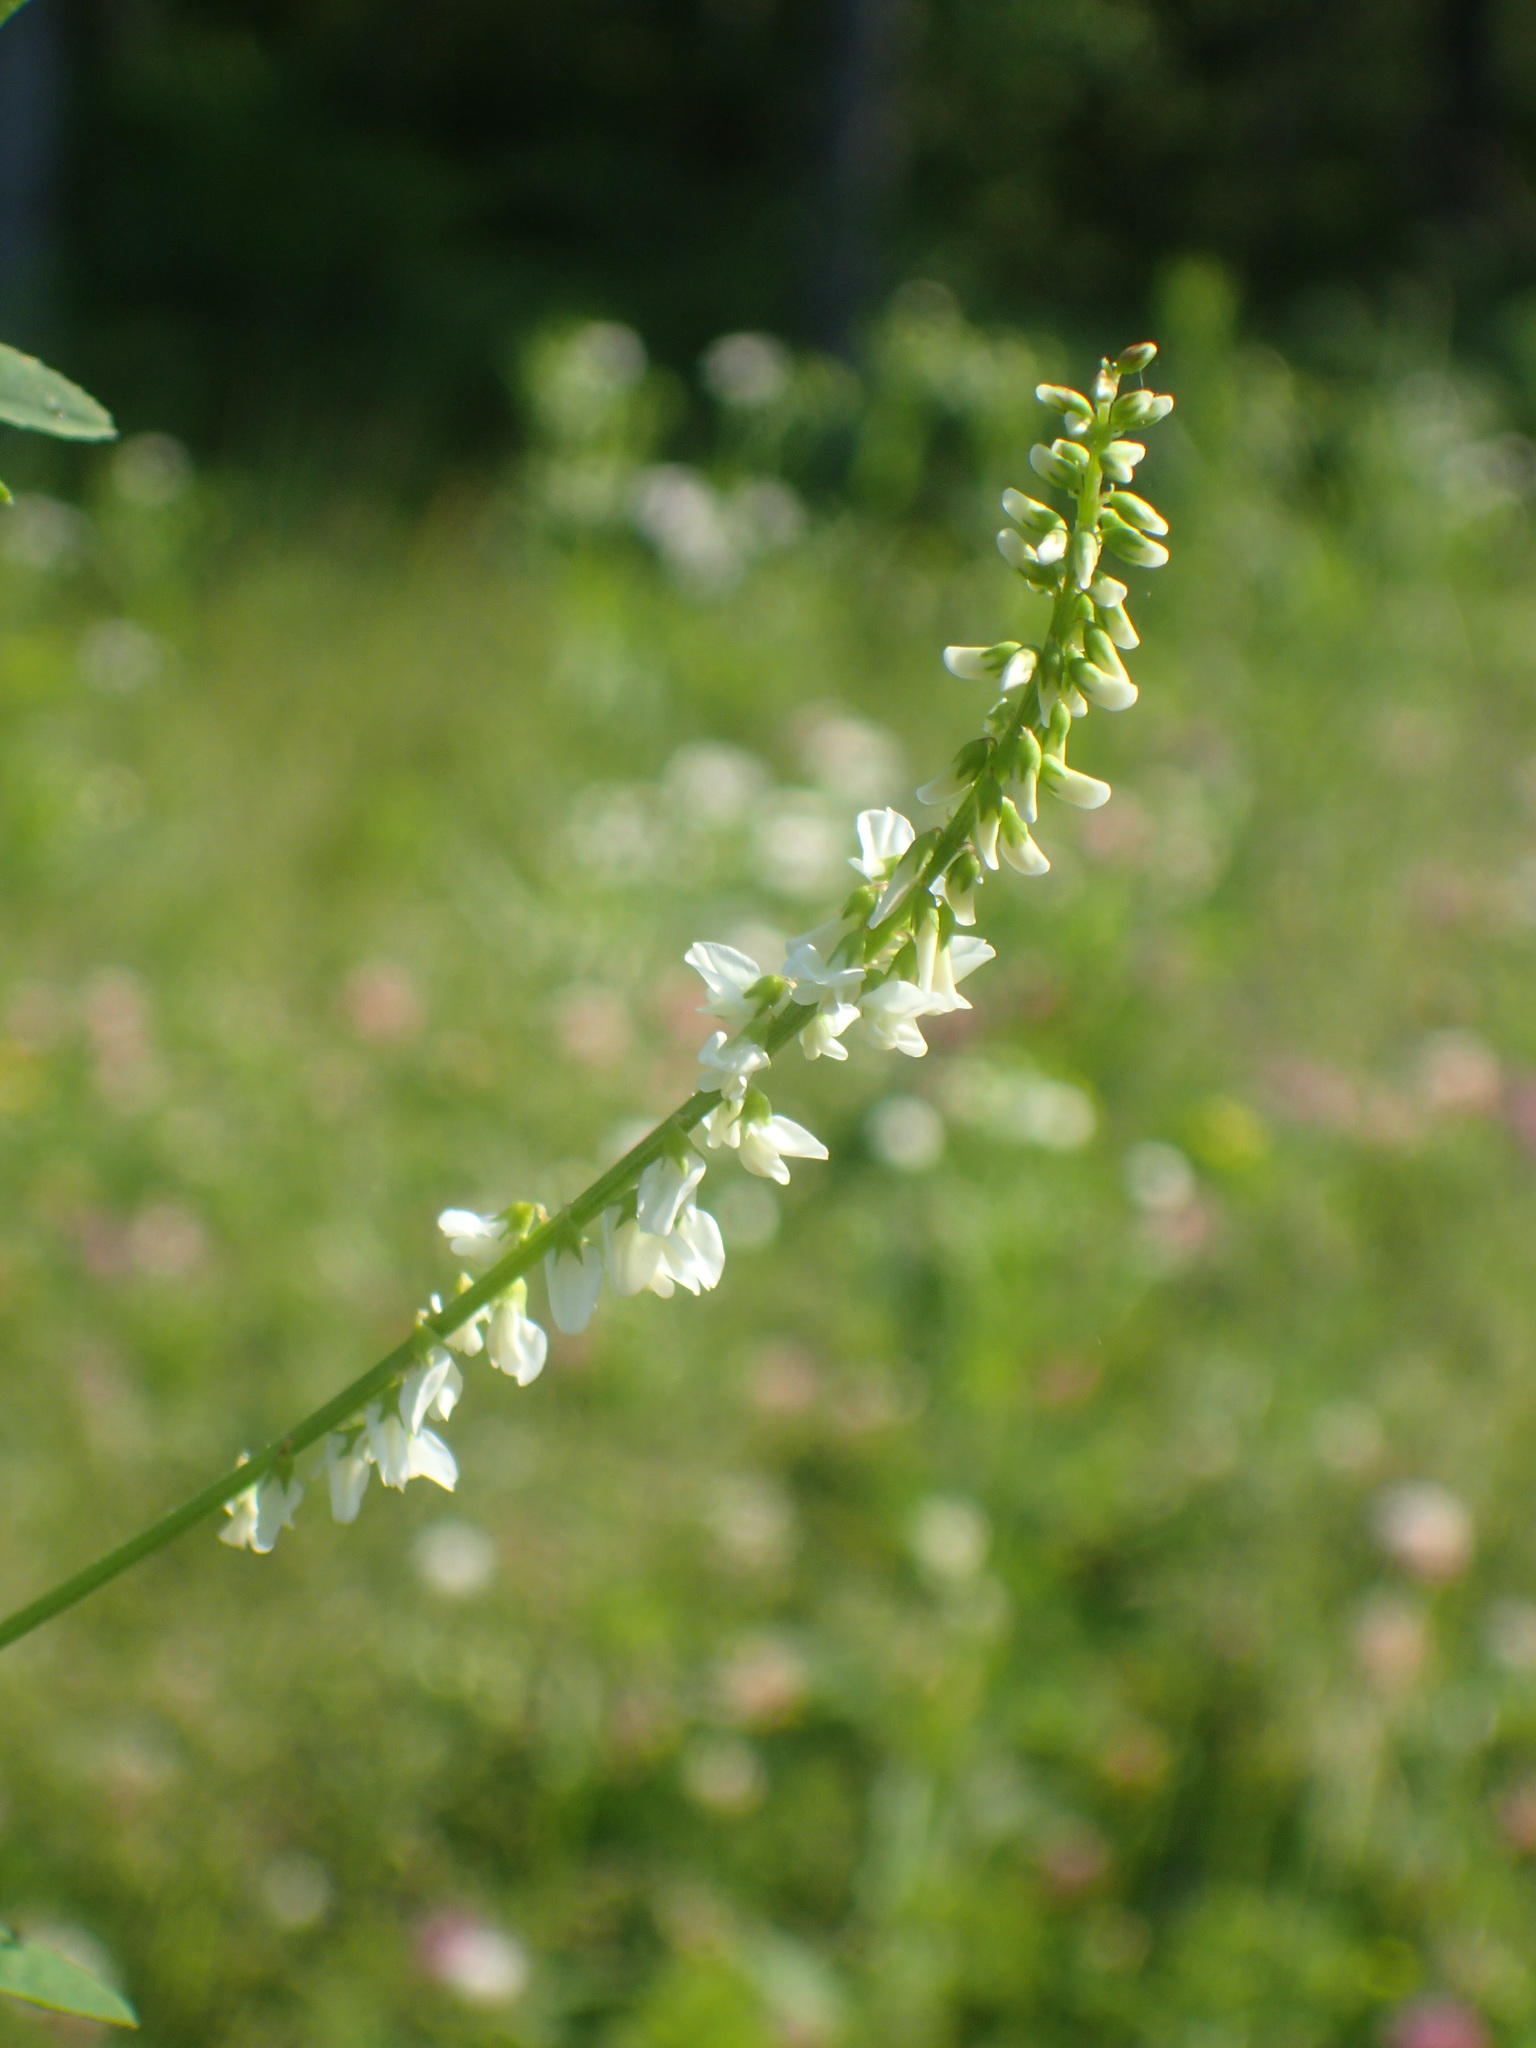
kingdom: Plantae
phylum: Tracheophyta
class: Magnoliopsida
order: Fabales
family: Fabaceae
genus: Melilotus
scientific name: Melilotus albus
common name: White melilot
